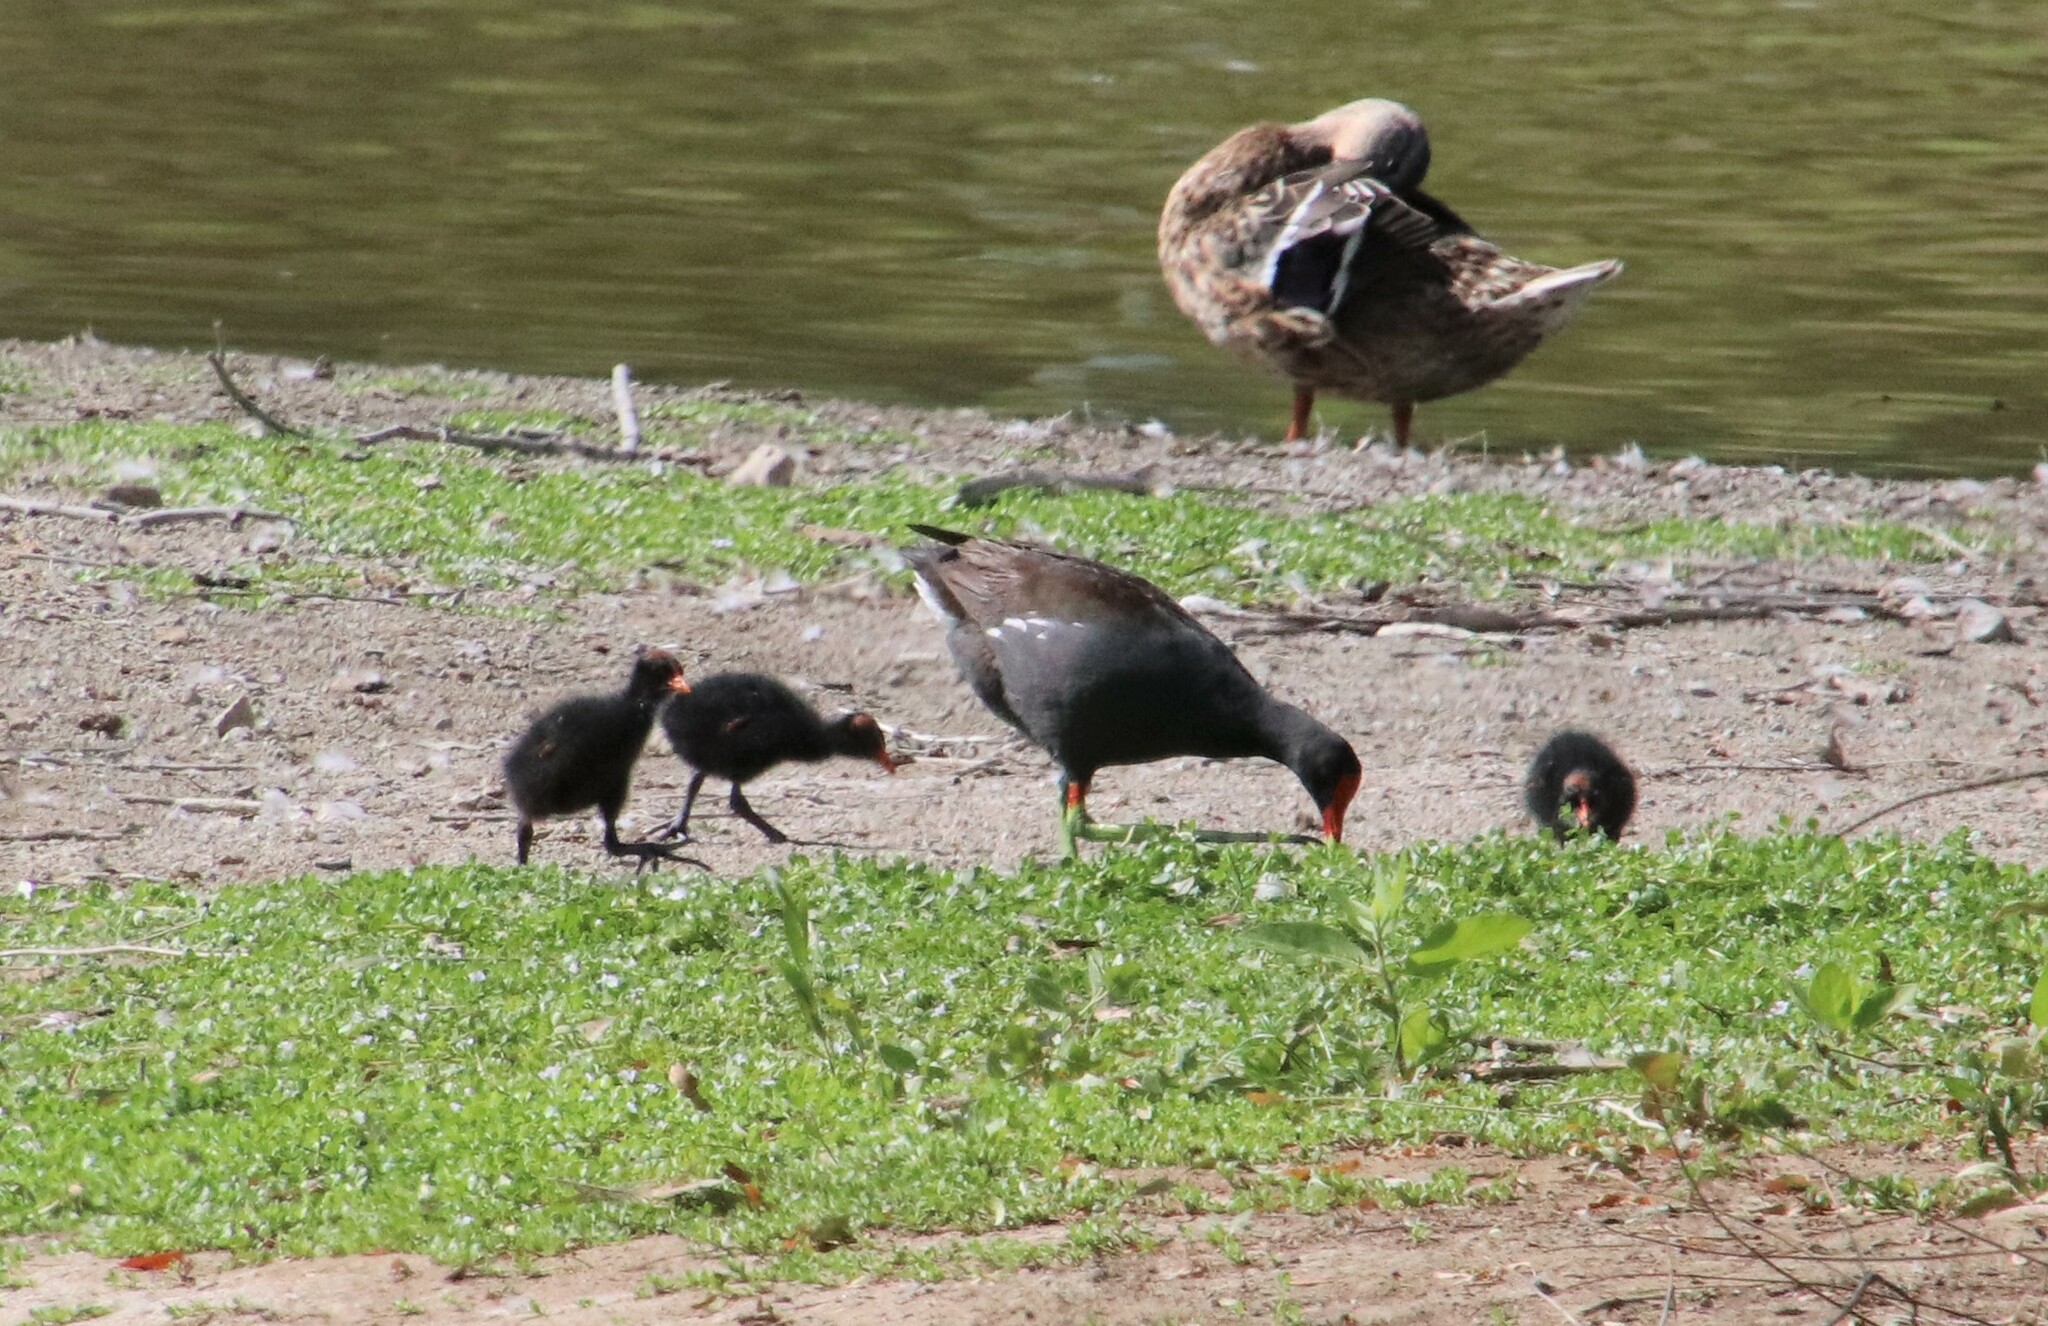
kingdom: Animalia
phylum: Chordata
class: Aves
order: Gruiformes
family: Rallidae
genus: Gallinula
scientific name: Gallinula chloropus
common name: Common moorhen
